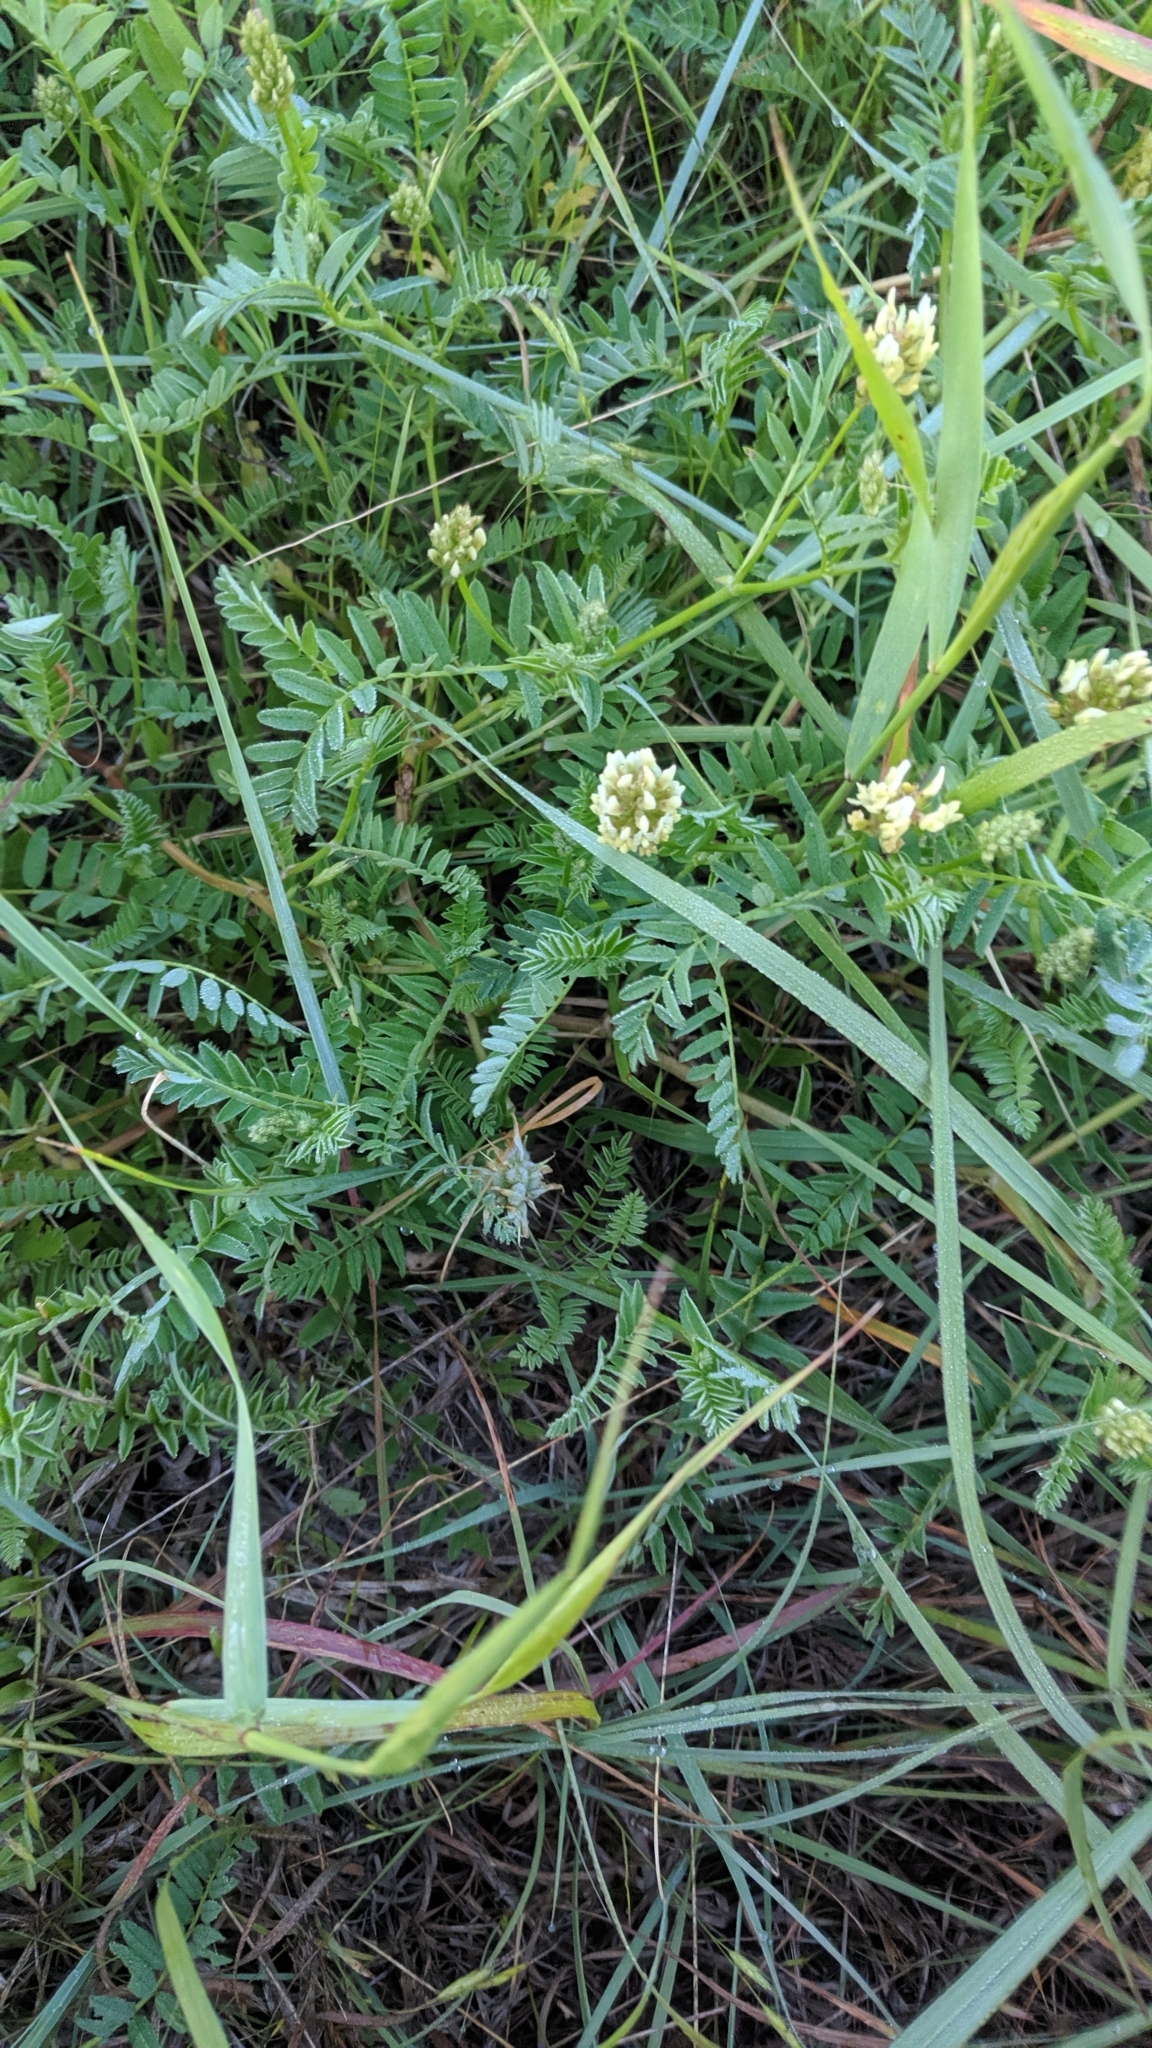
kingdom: Plantae
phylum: Tracheophyta
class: Magnoliopsida
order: Fabales
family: Fabaceae
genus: Astragalus
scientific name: Astragalus cicer
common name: Chick-pea milk-vetch
